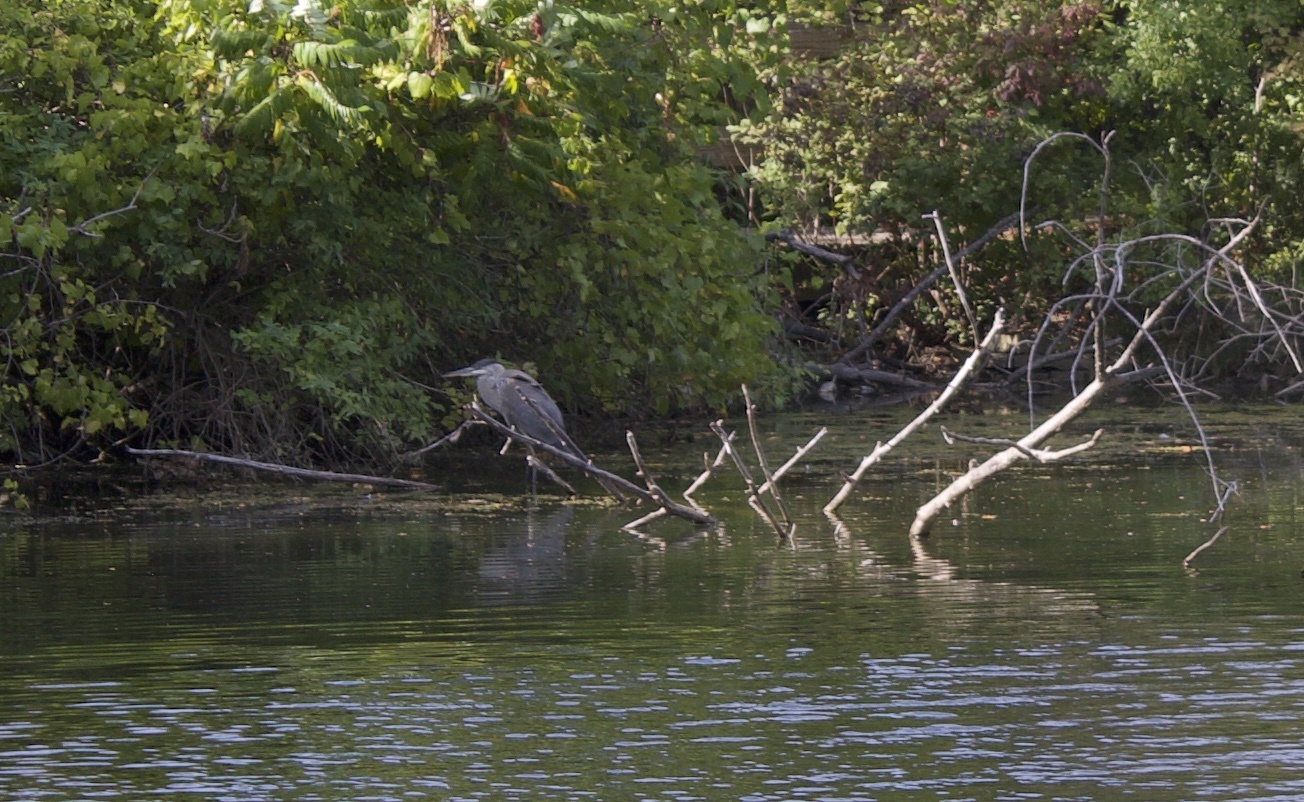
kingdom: Animalia
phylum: Chordata
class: Aves
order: Pelecaniformes
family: Ardeidae
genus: Ardea
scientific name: Ardea herodias
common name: Great blue heron
